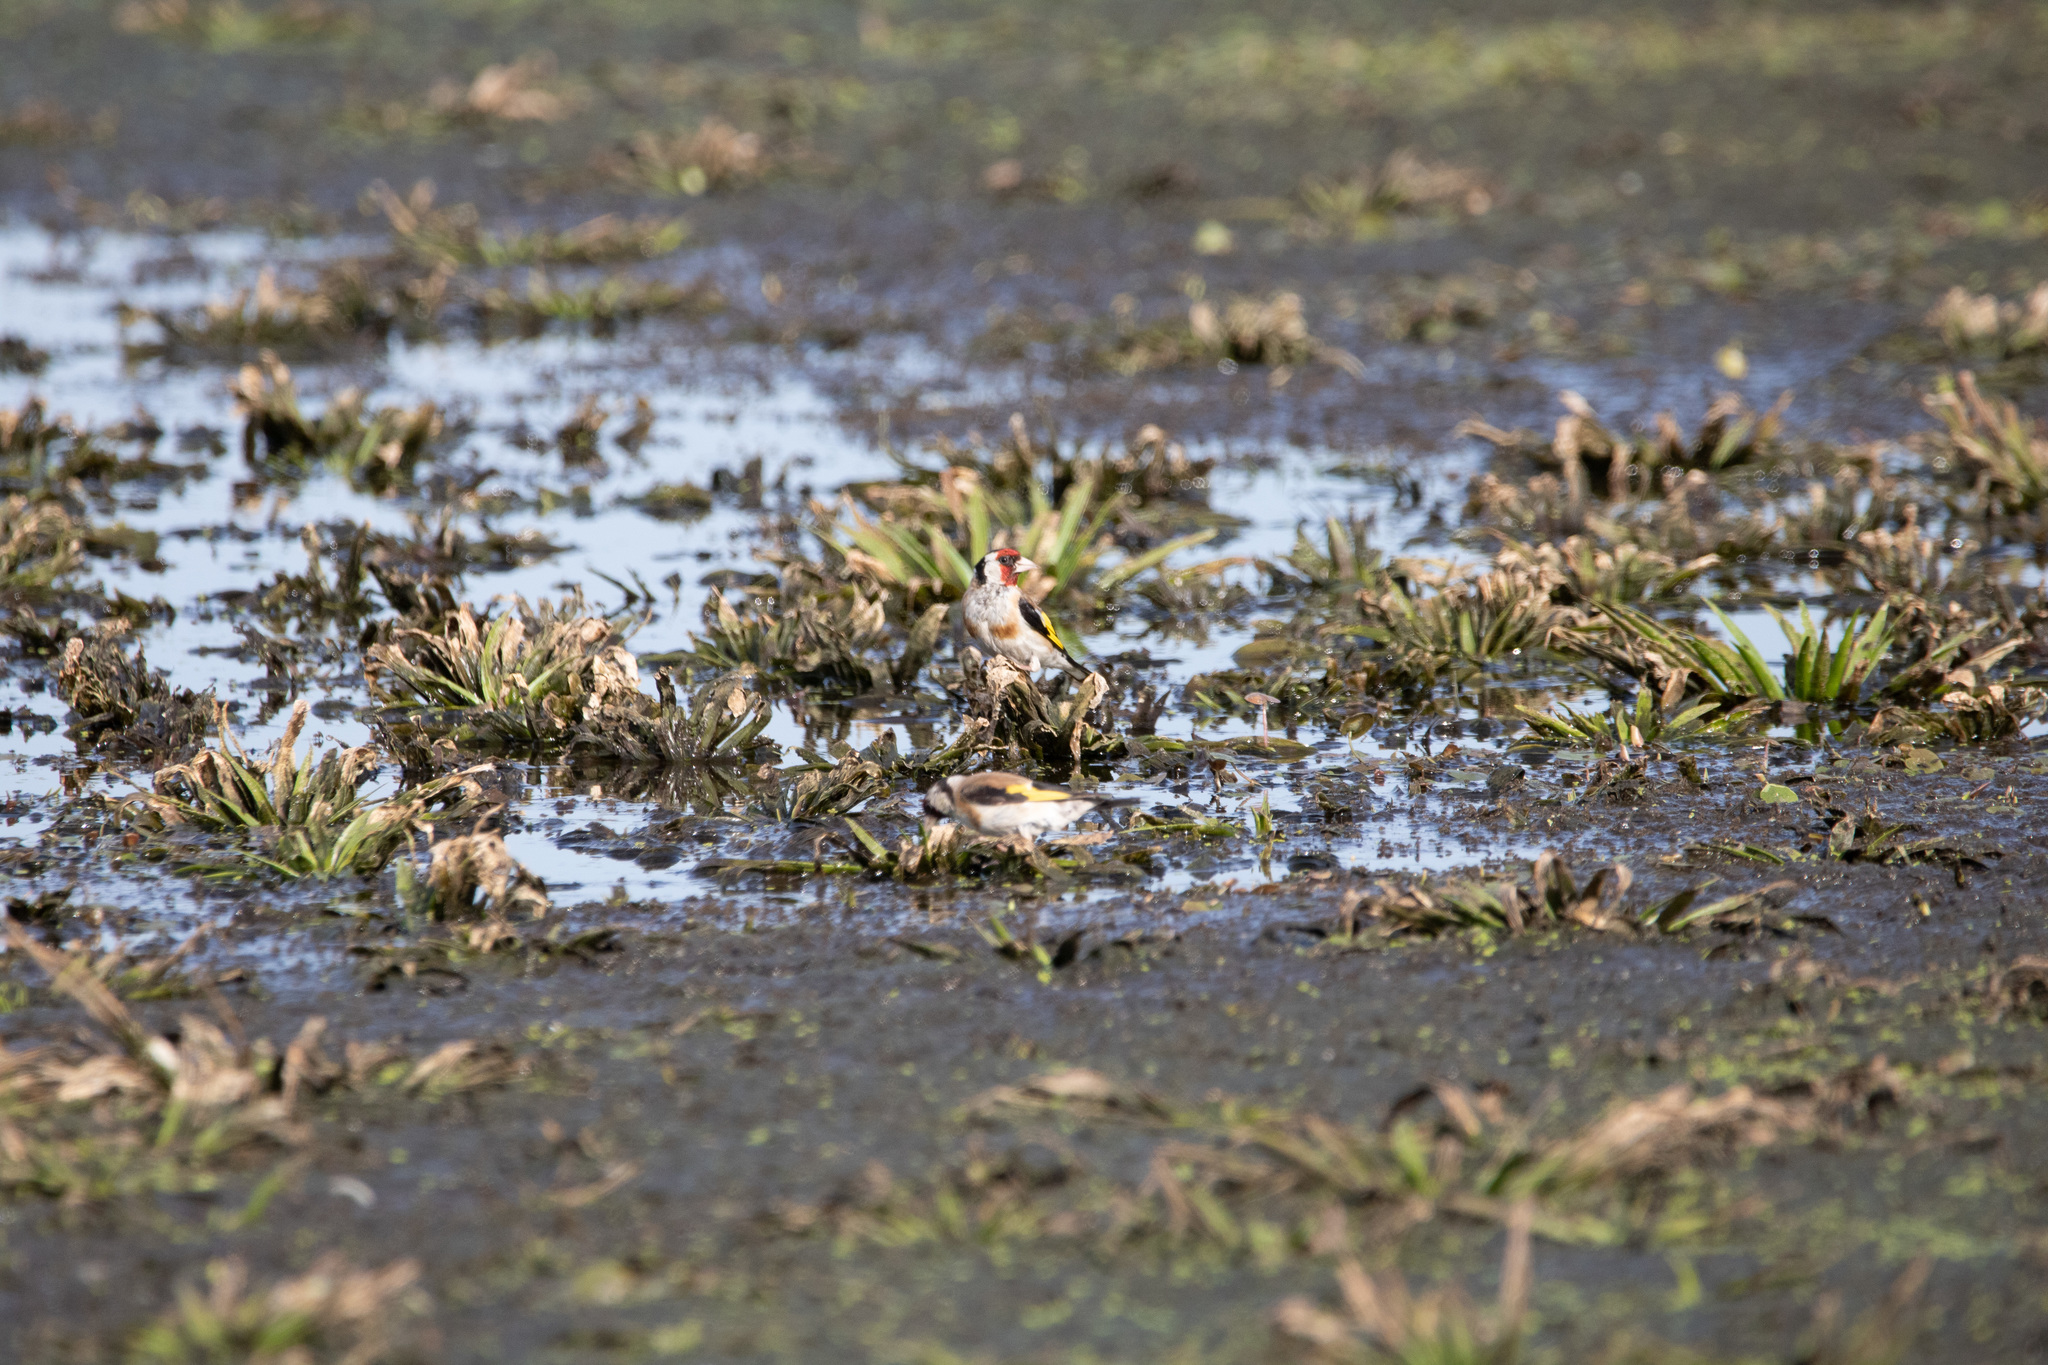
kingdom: Animalia
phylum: Chordata
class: Aves
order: Passeriformes
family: Fringillidae
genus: Carduelis
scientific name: Carduelis carduelis
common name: European goldfinch
